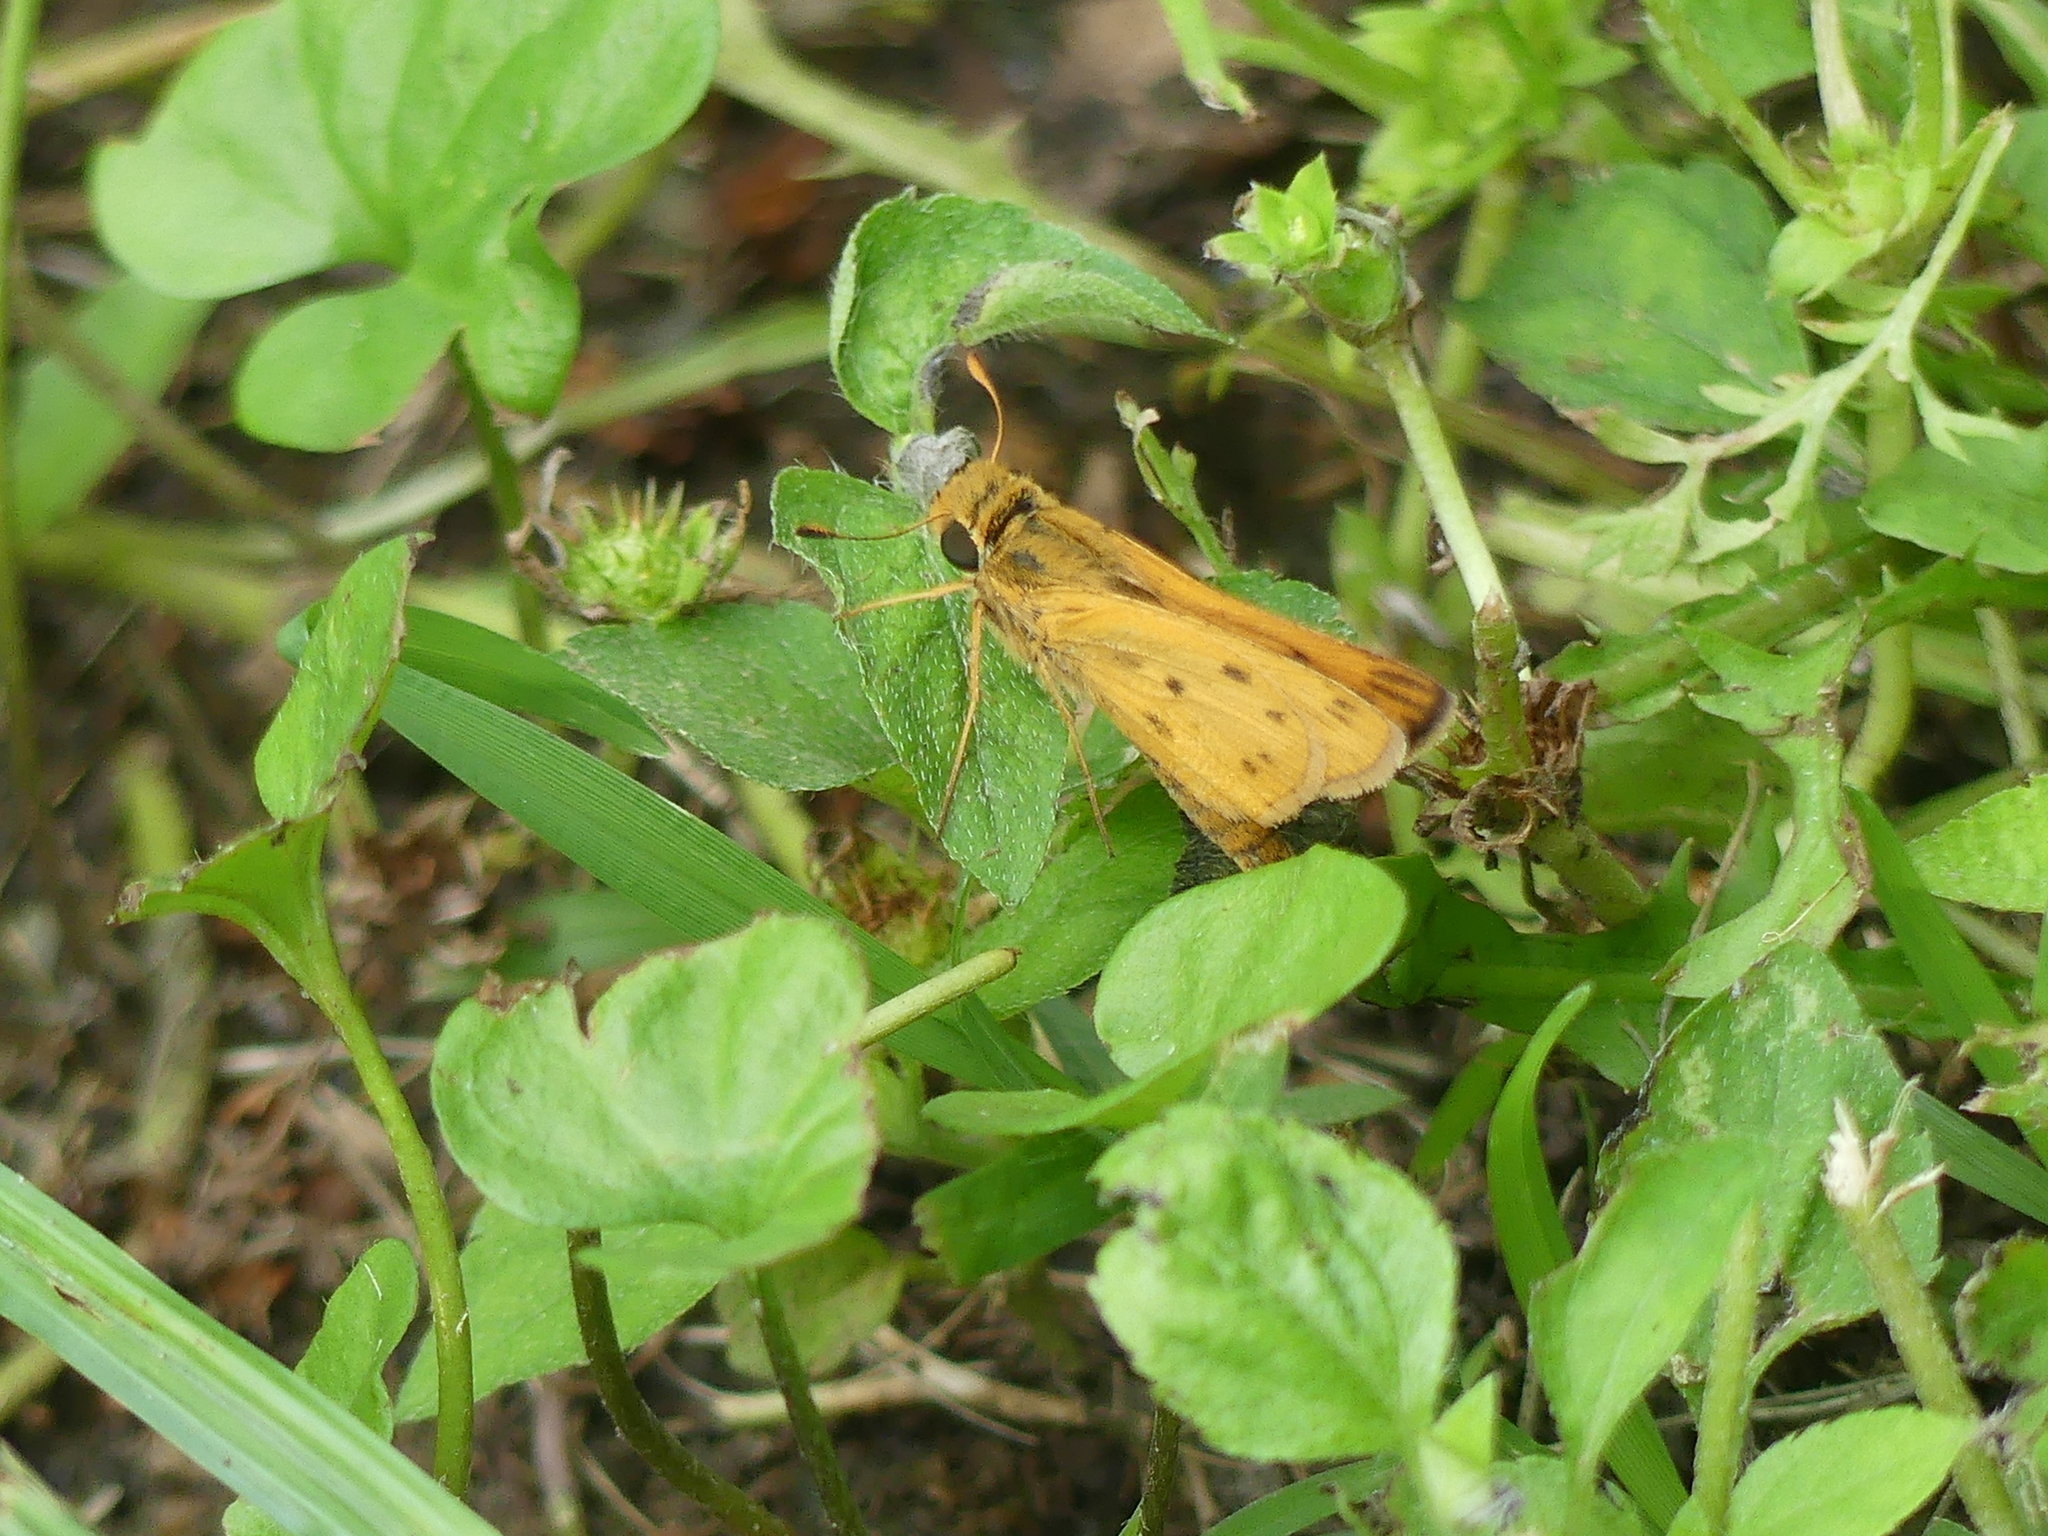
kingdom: Animalia
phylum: Arthropoda
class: Insecta
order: Lepidoptera
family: Hesperiidae
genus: Hylephila
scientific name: Hylephila phyleus
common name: Fiery skipper
